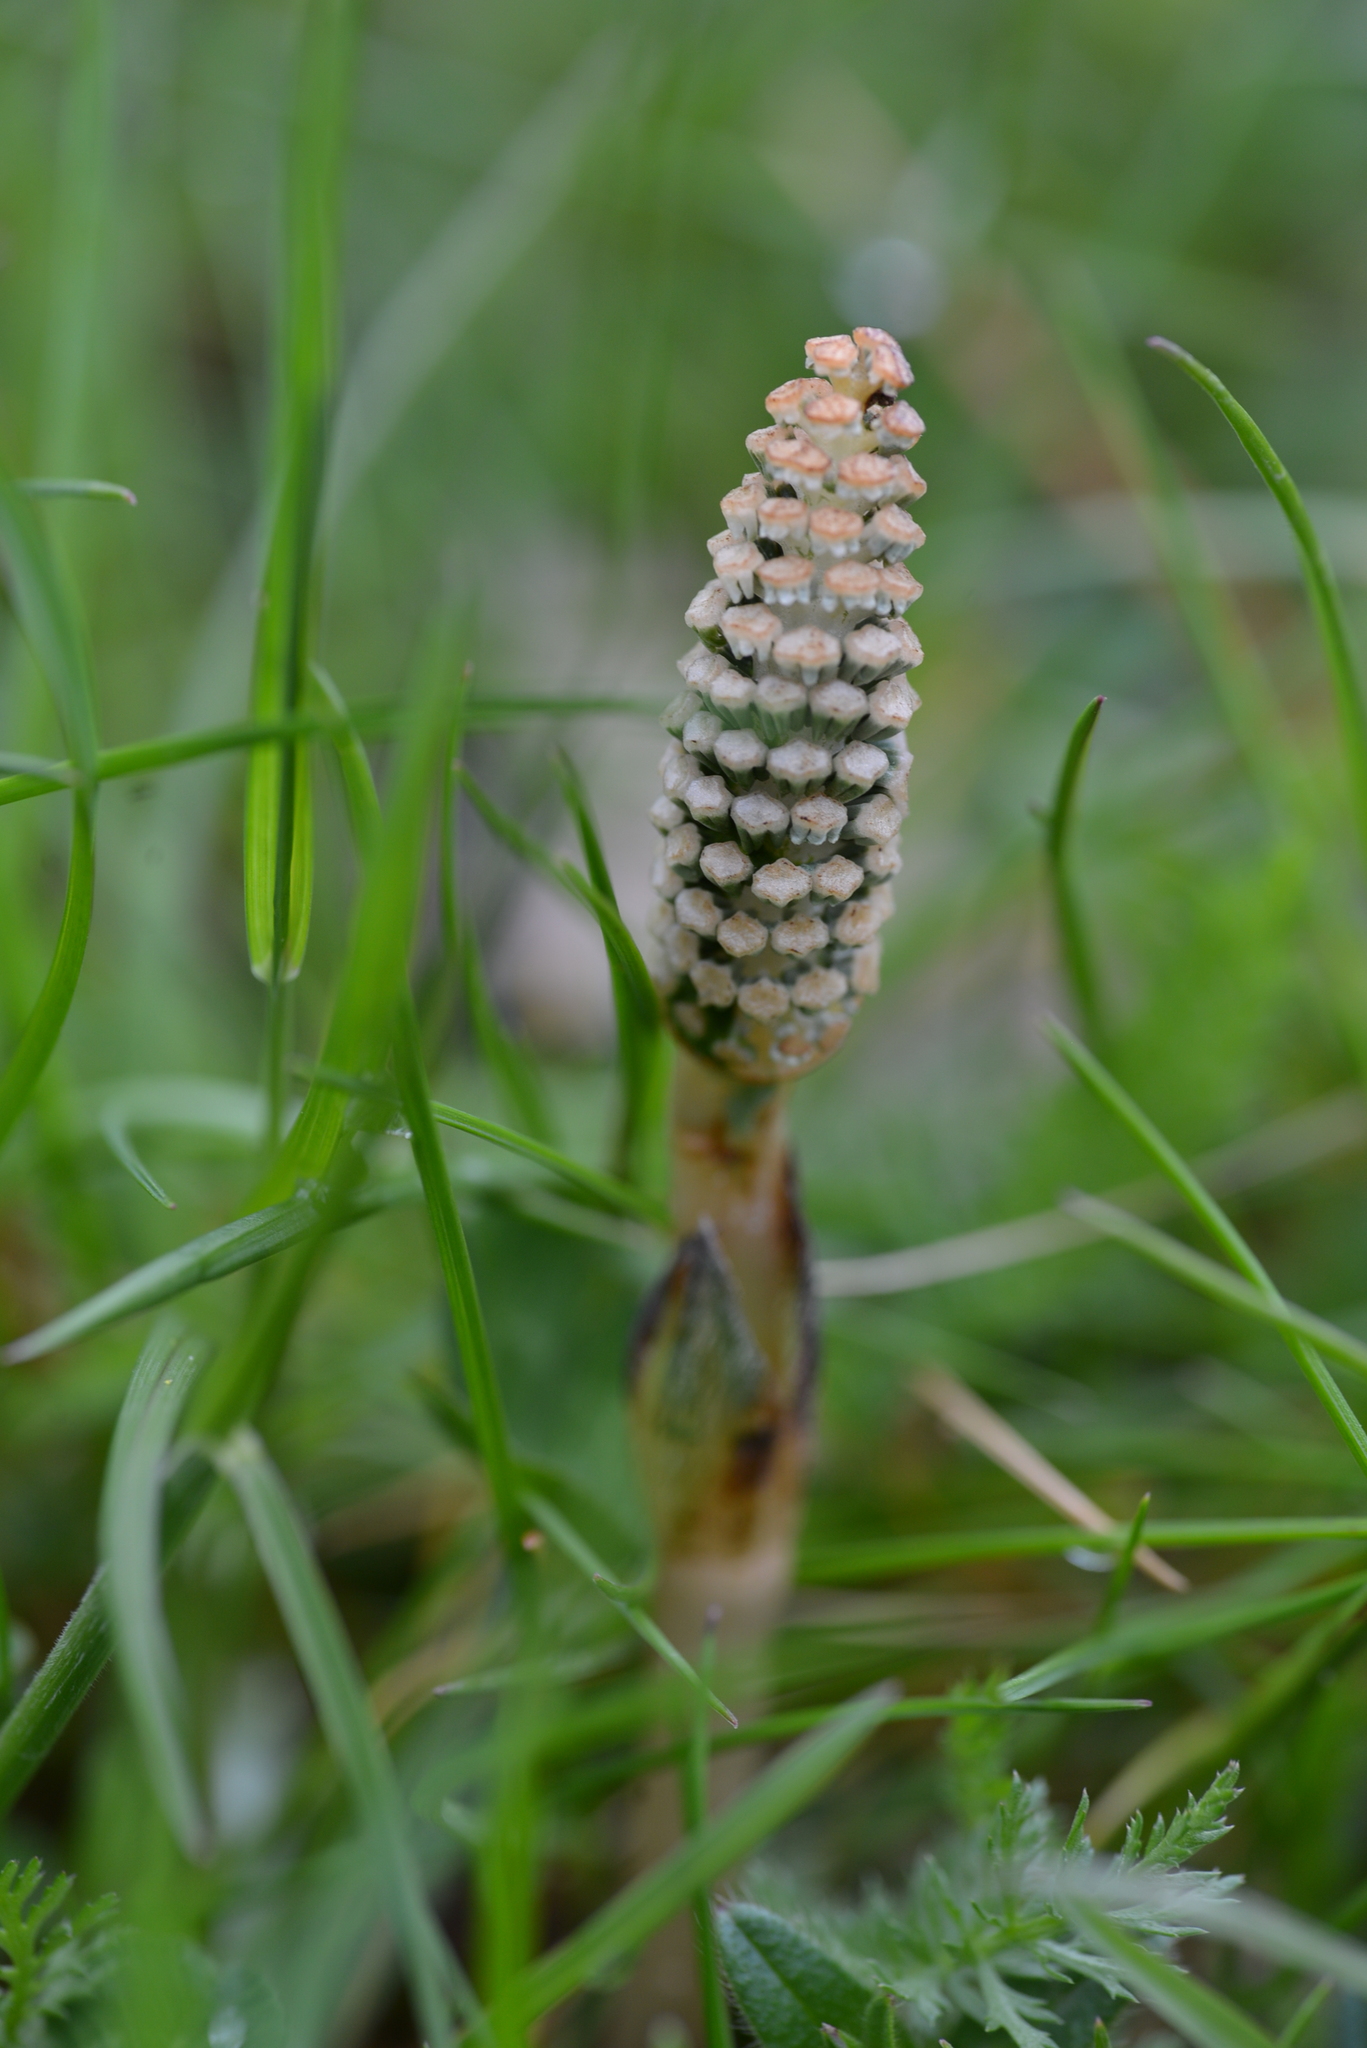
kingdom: Plantae
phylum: Tracheophyta
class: Polypodiopsida
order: Equisetales
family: Equisetaceae
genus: Equisetum
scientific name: Equisetum arvense
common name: Field horsetail
